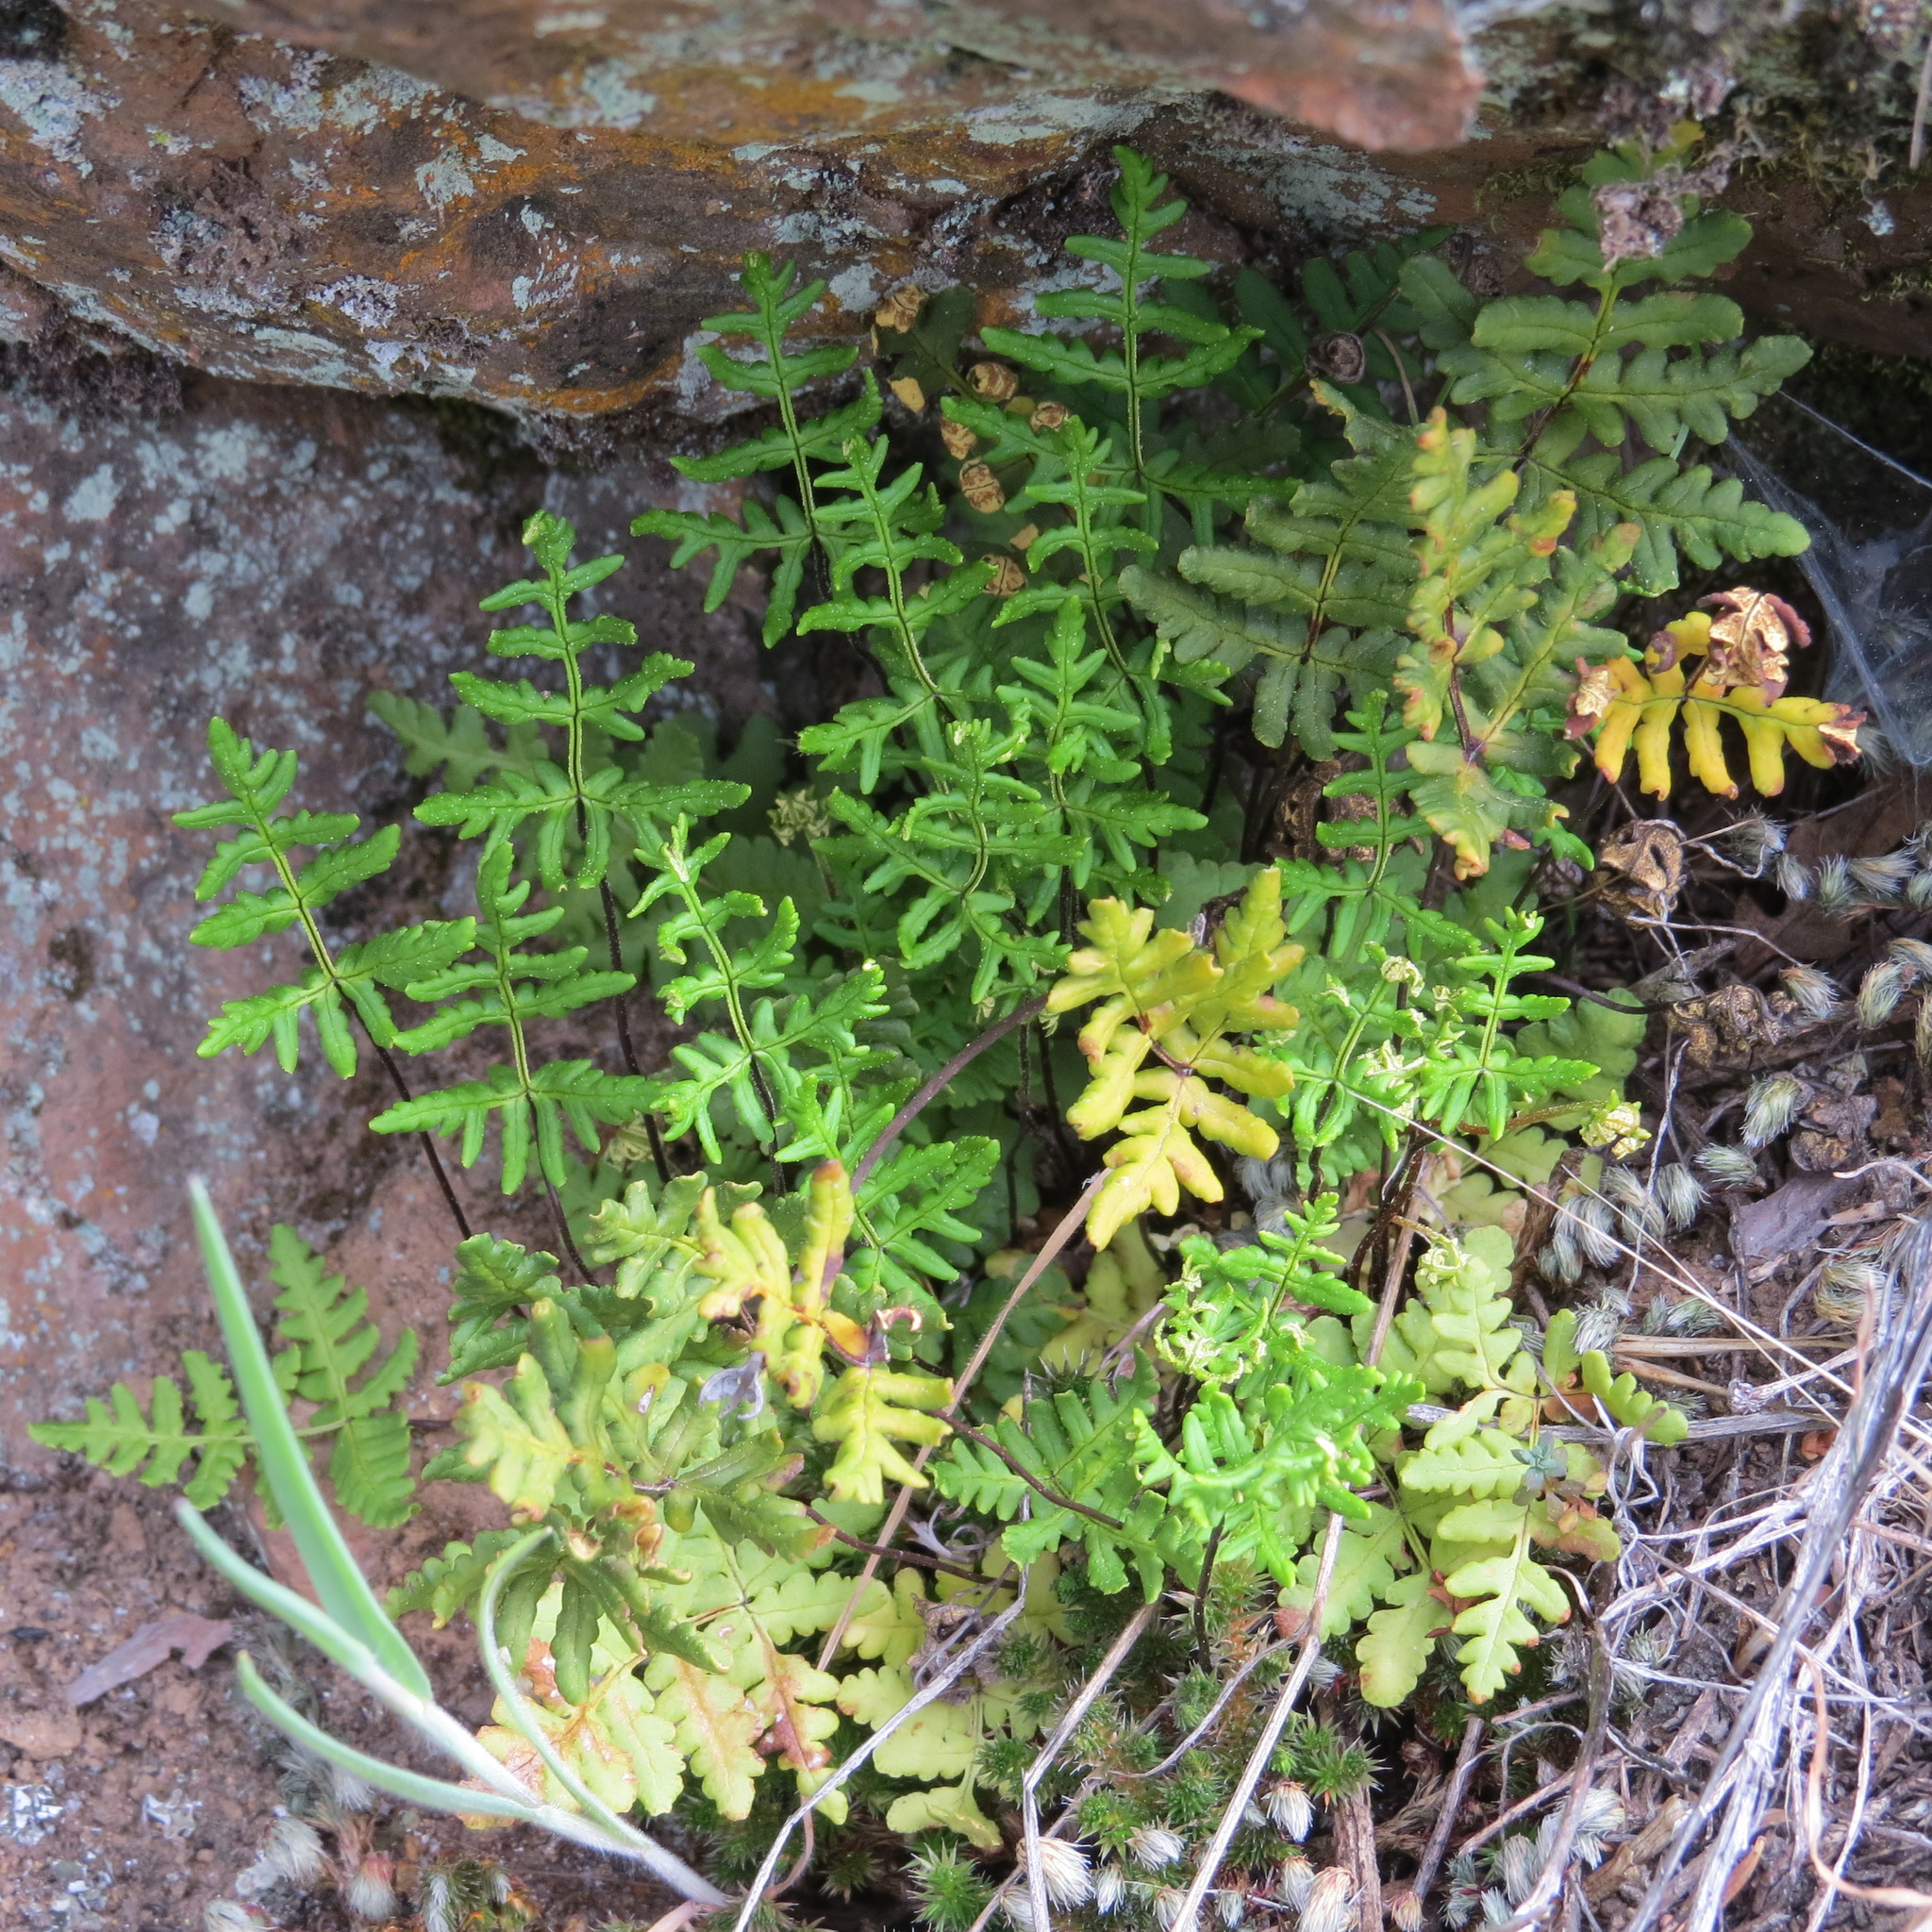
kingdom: Plantae
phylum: Tracheophyta
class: Polypodiopsida
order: Polypodiales
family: Pteridaceae
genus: Pentagramma
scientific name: Pentagramma triangularis
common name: Gold fern
